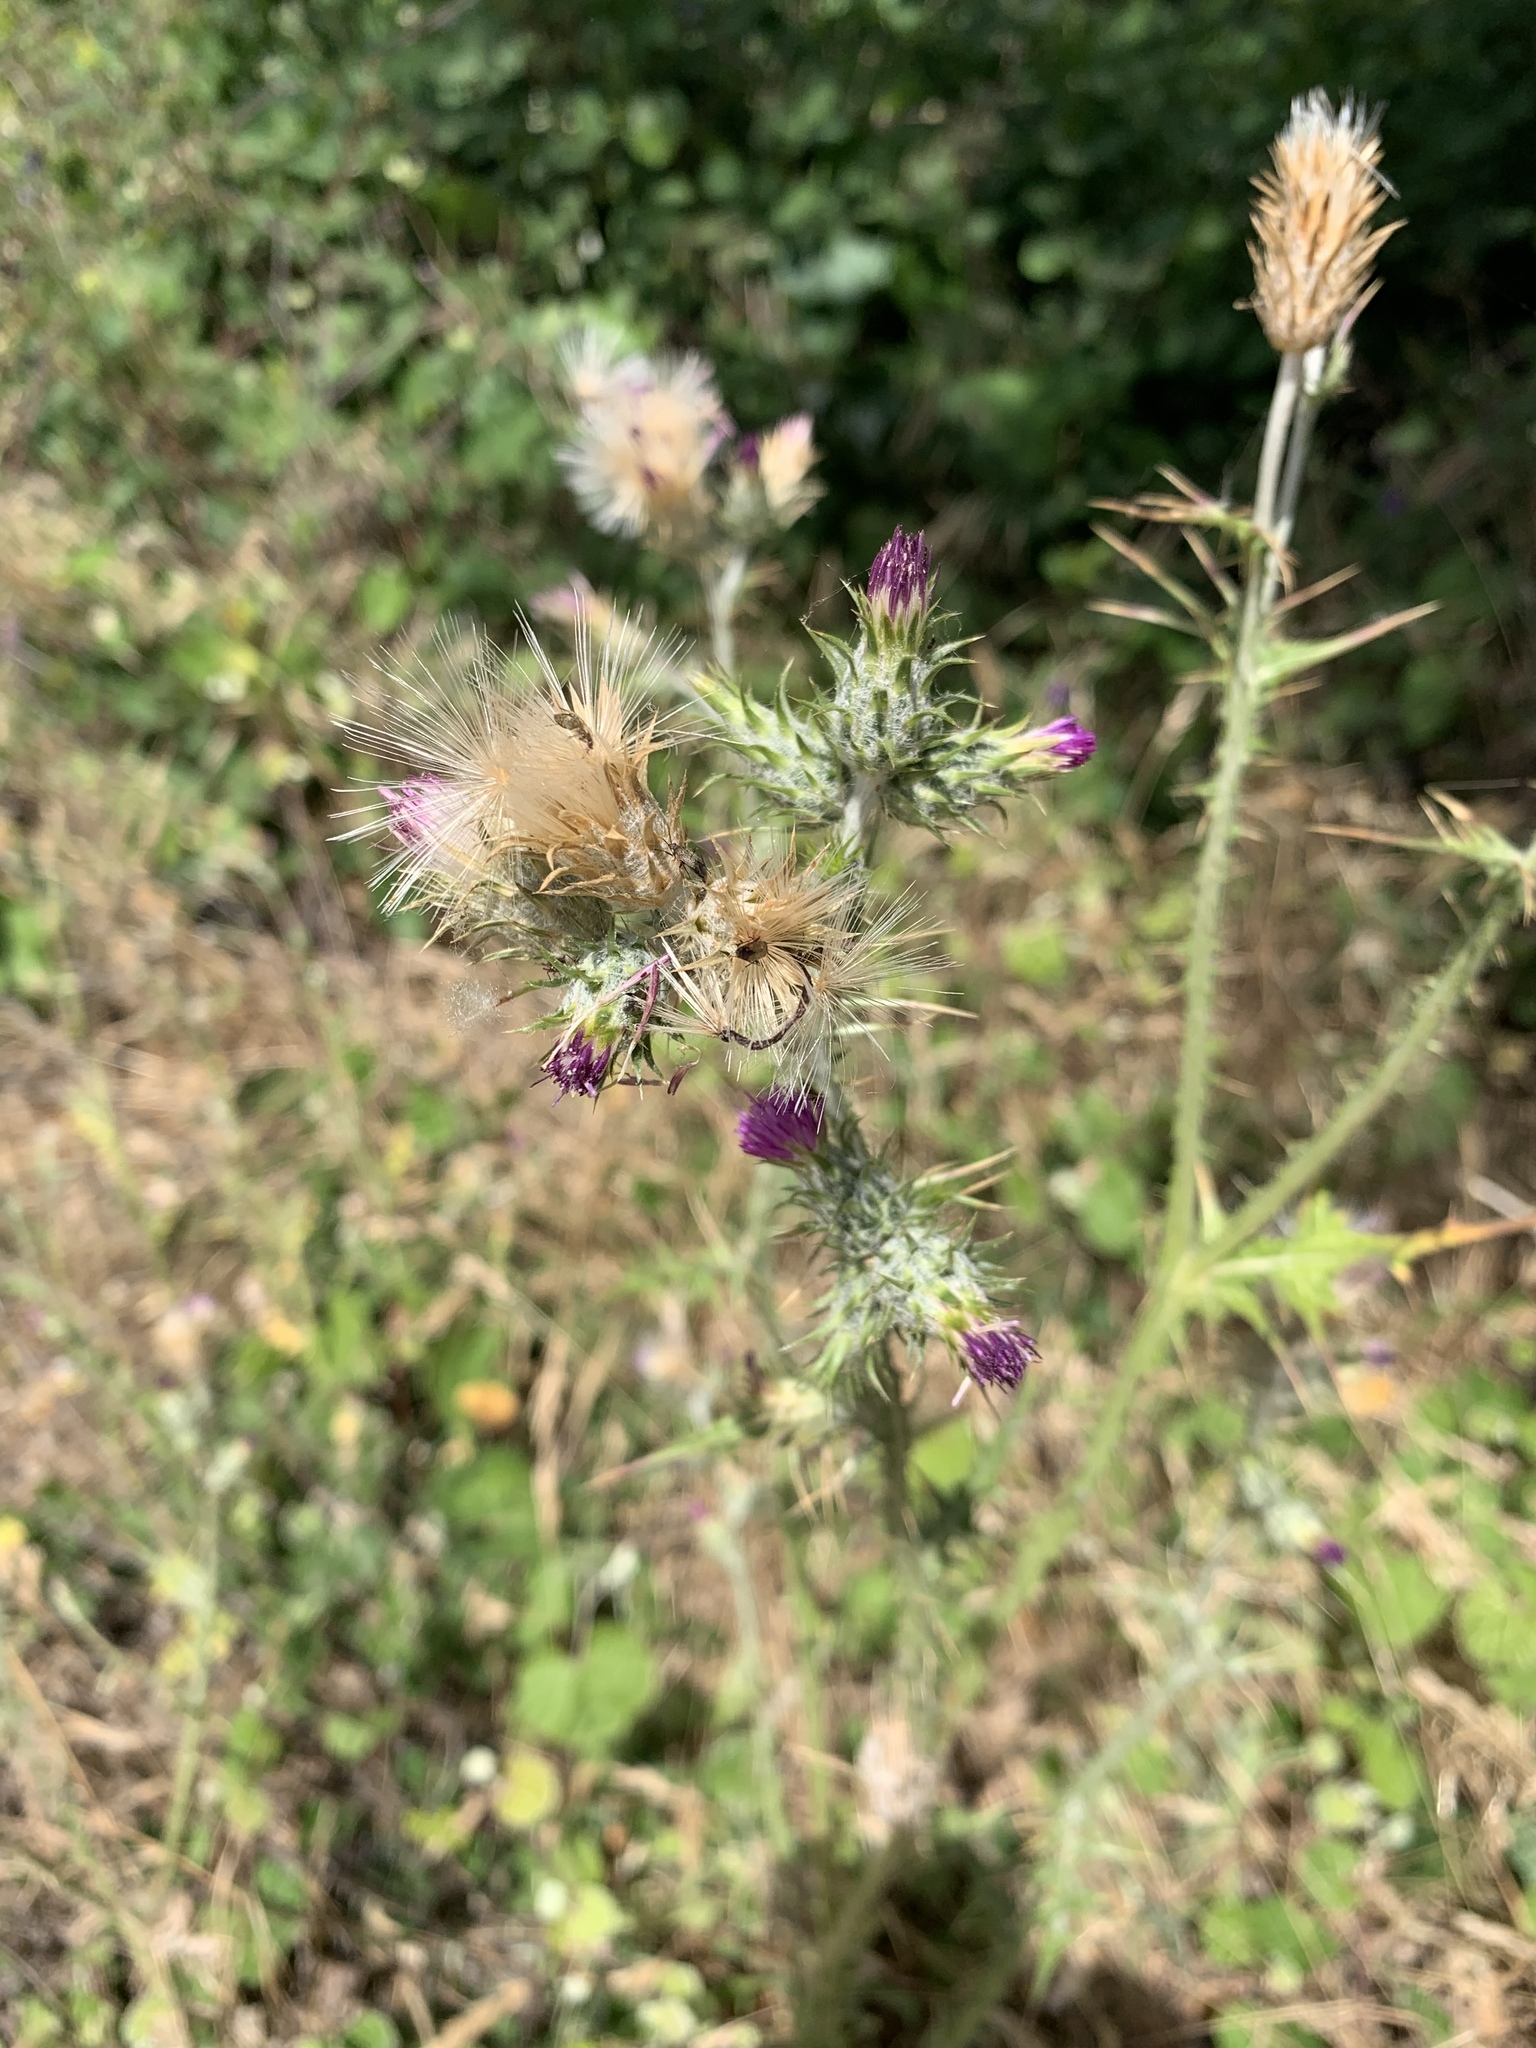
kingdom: Plantae
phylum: Tracheophyta
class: Magnoliopsida
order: Asterales
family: Asteraceae
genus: Carduus
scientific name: Carduus pycnocephalus
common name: Plymouth thistle
